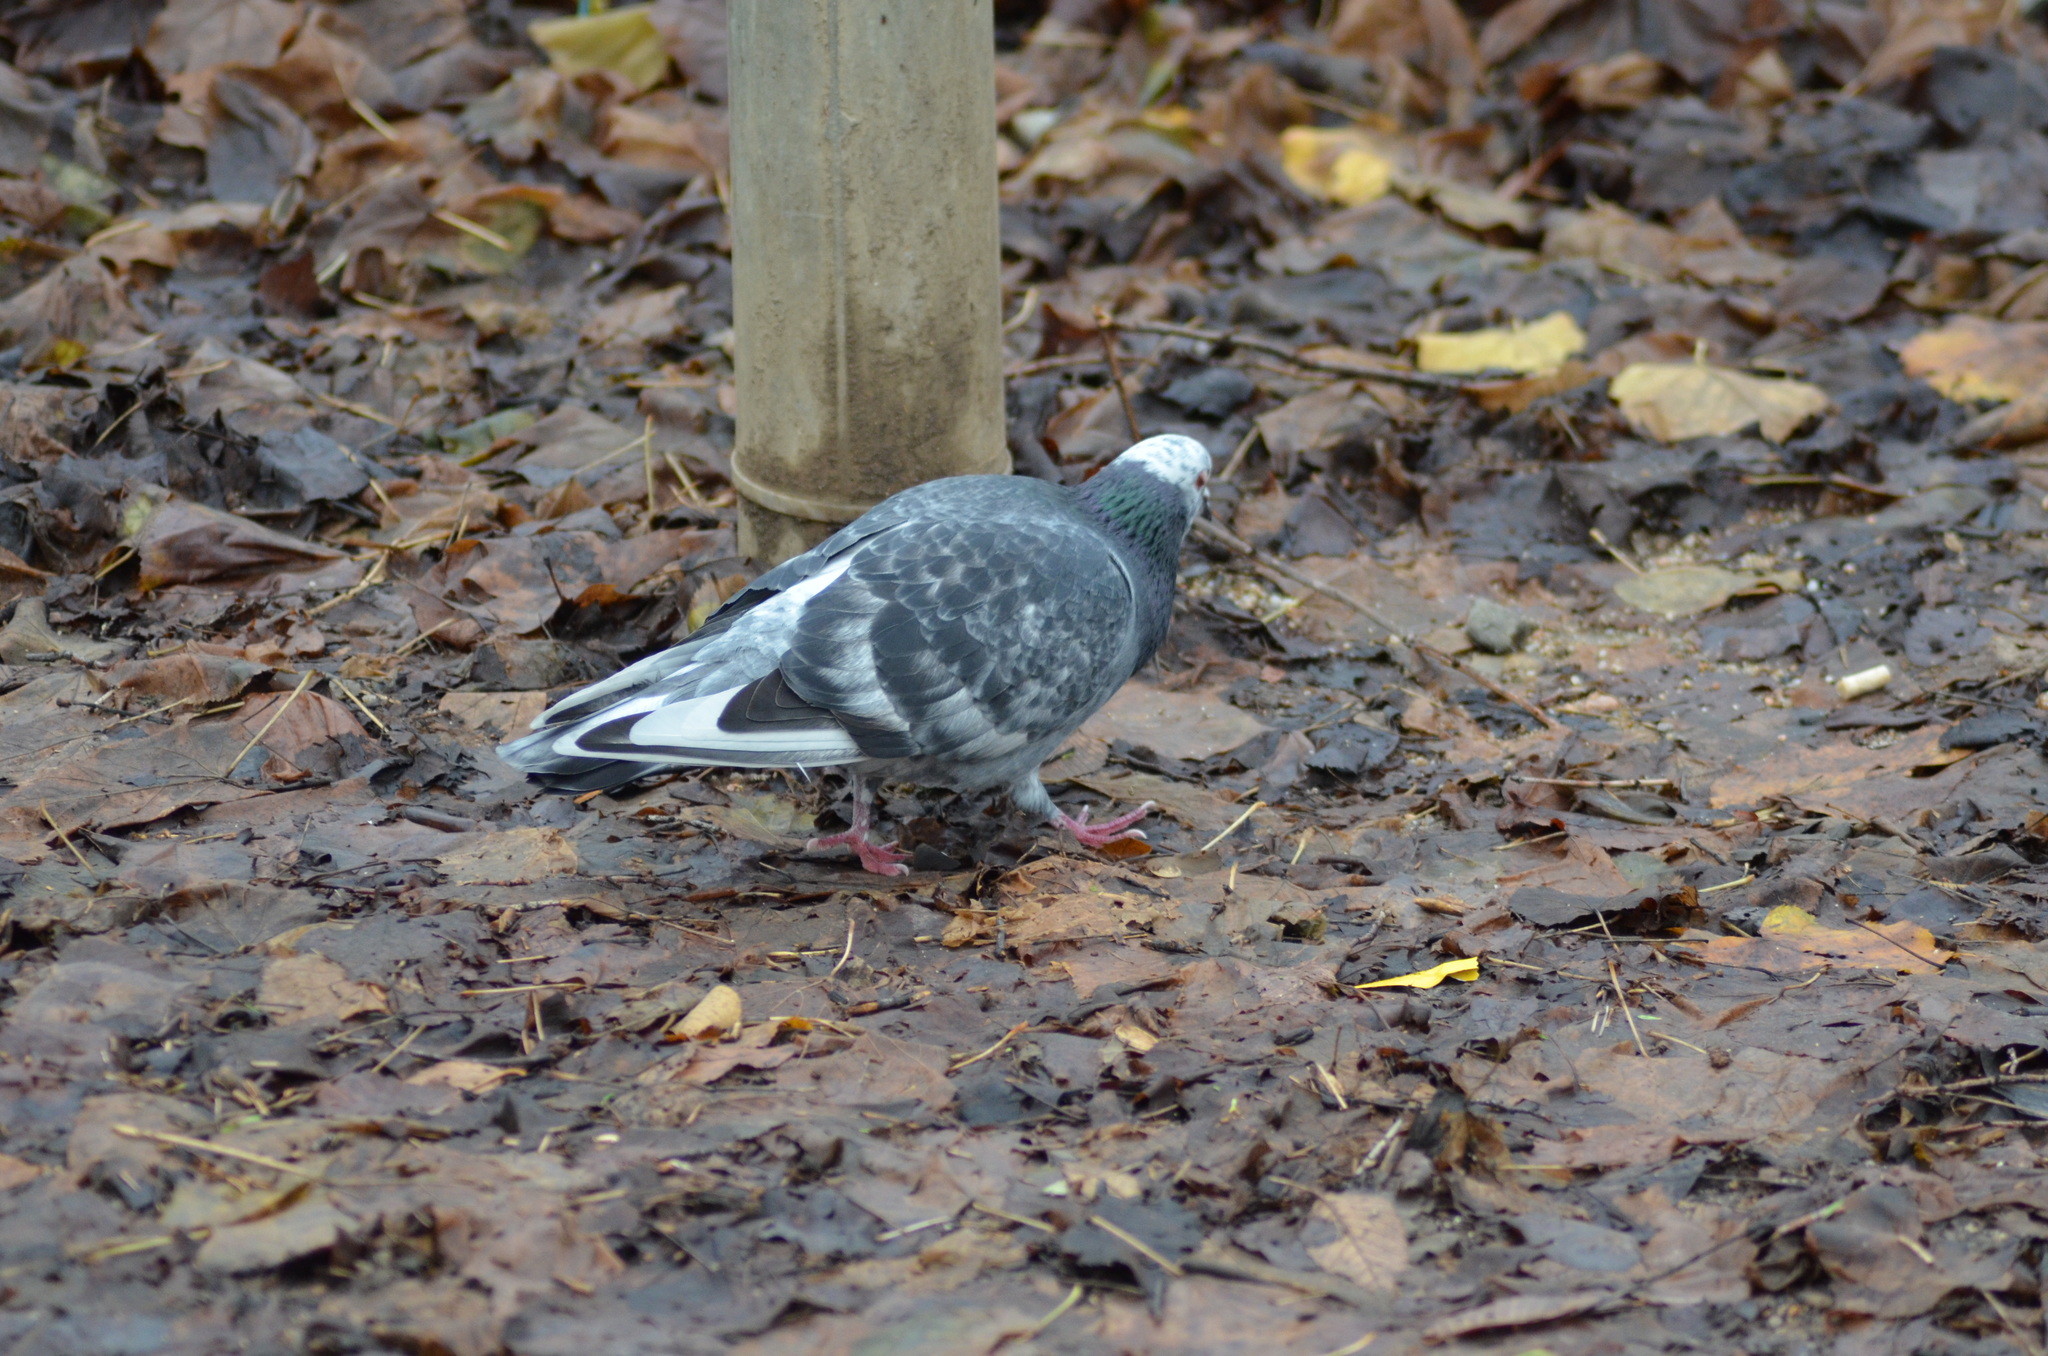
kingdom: Animalia
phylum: Chordata
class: Aves
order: Columbiformes
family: Columbidae
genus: Columba
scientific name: Columba livia
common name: Rock pigeon
